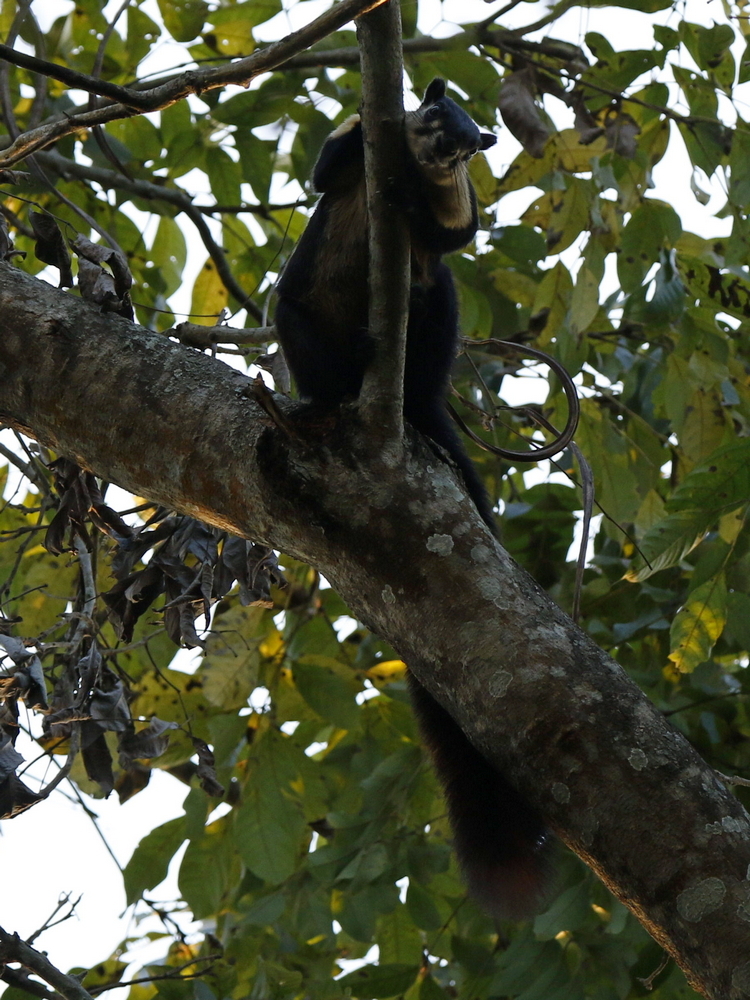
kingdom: Animalia
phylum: Chordata
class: Mammalia
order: Rodentia
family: Sciuridae
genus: Ratufa
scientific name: Ratufa bicolor
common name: Black giant squirrel
